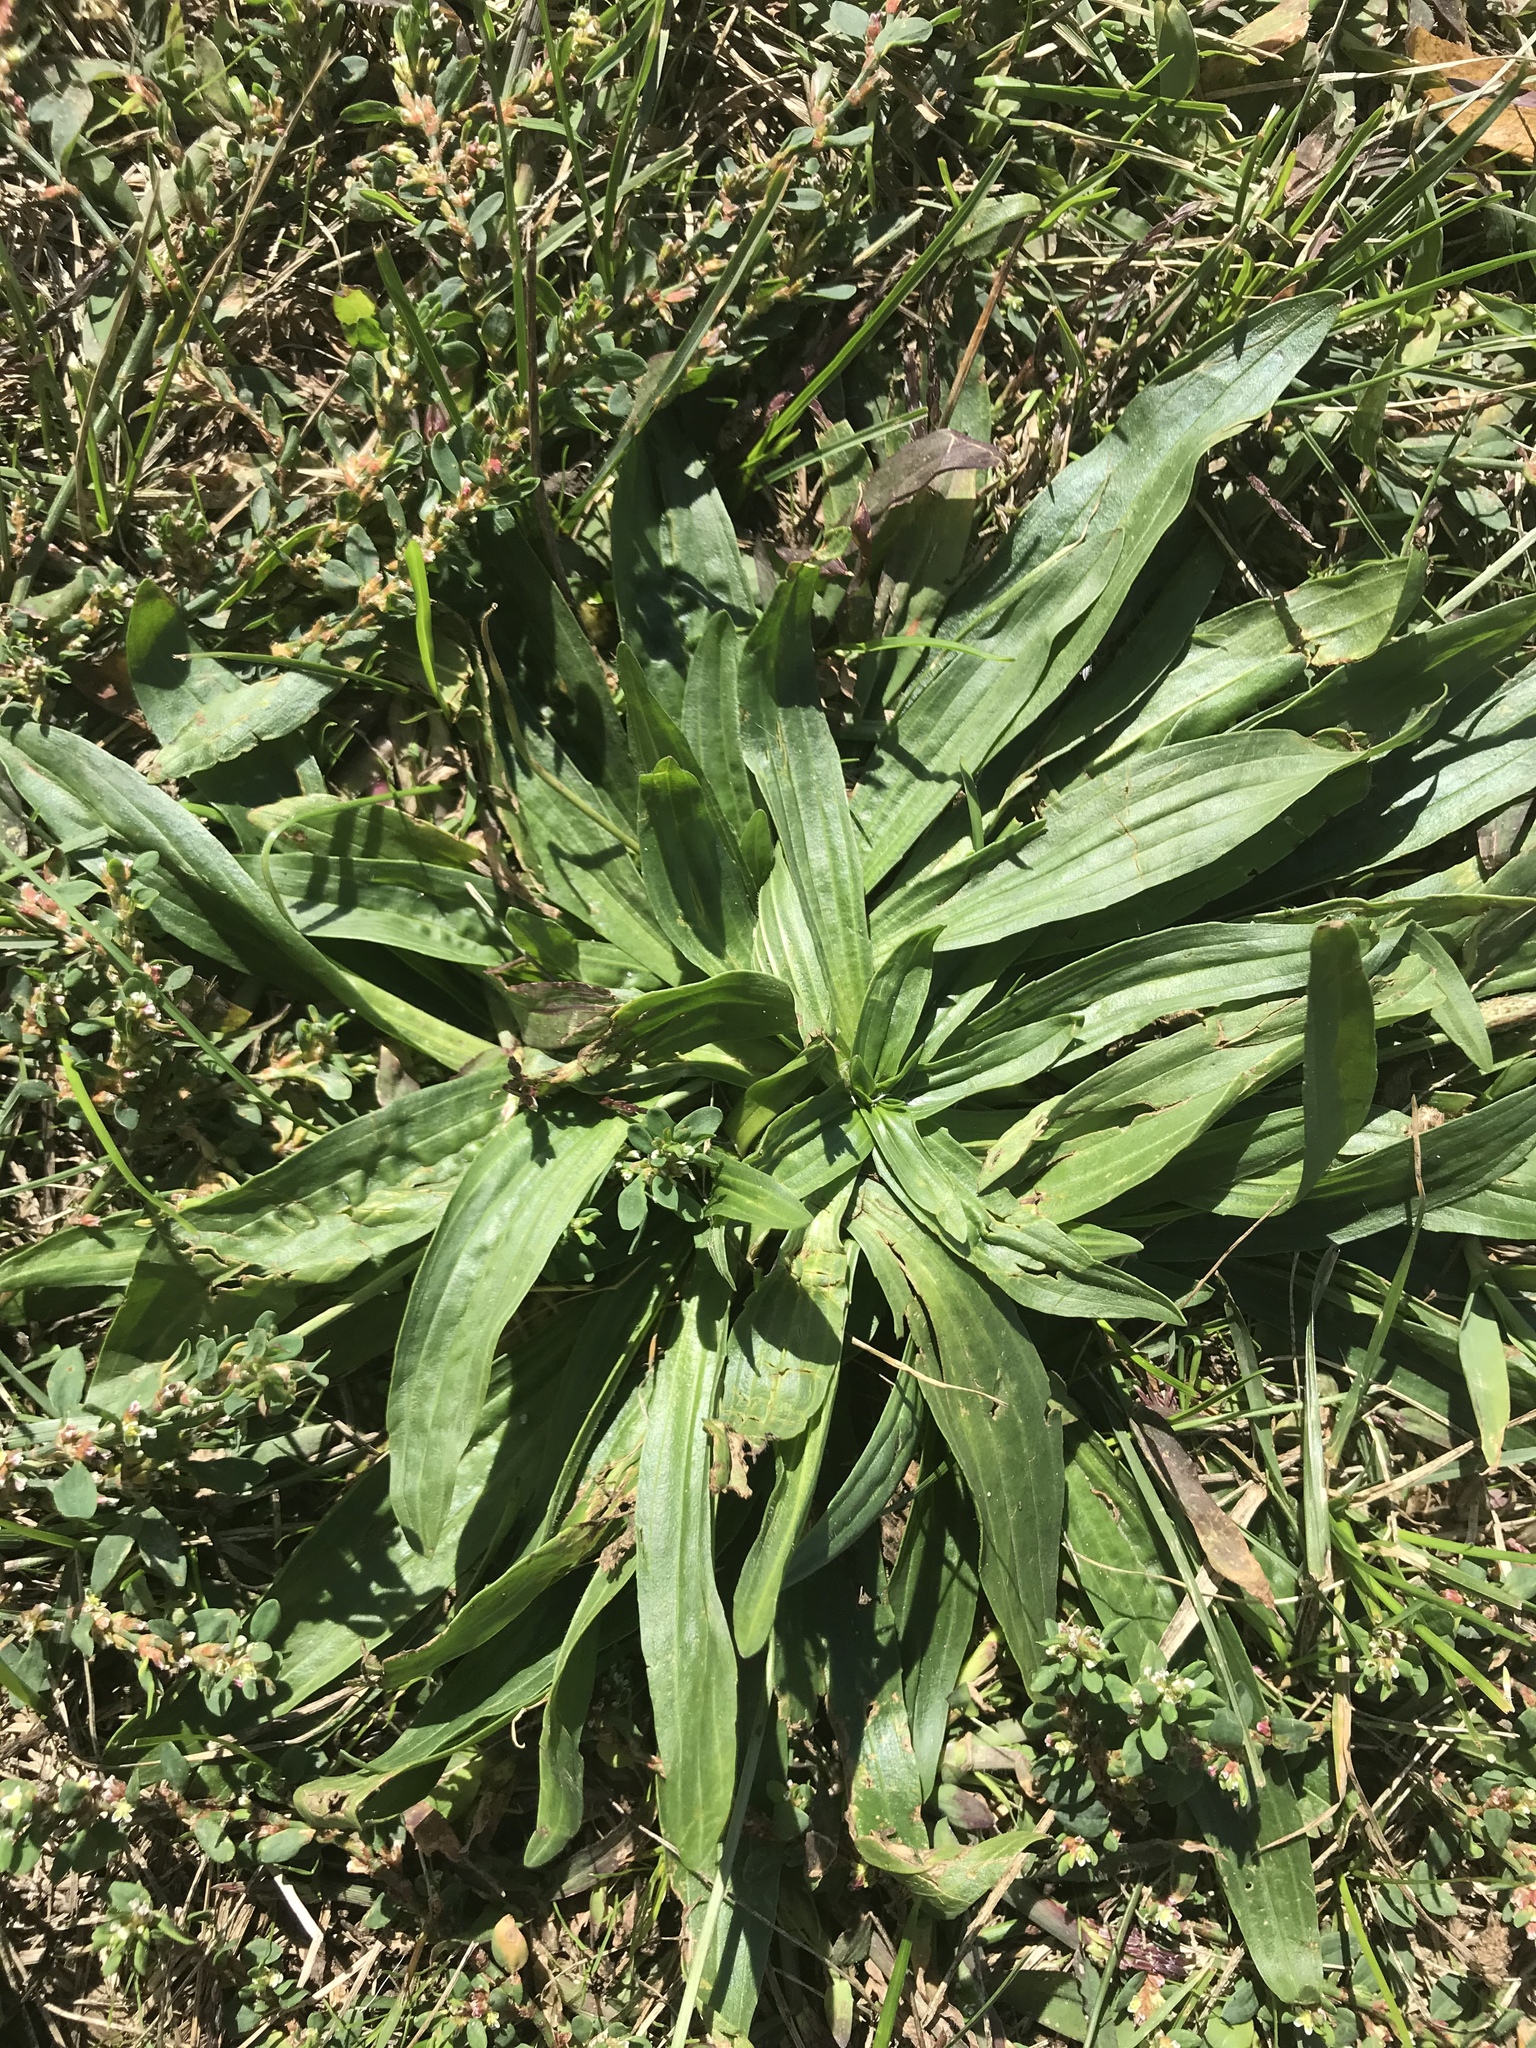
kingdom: Plantae
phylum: Tracheophyta
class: Magnoliopsida
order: Lamiales
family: Plantaginaceae
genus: Plantago
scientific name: Plantago lanceolata
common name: Ribwort plantain
